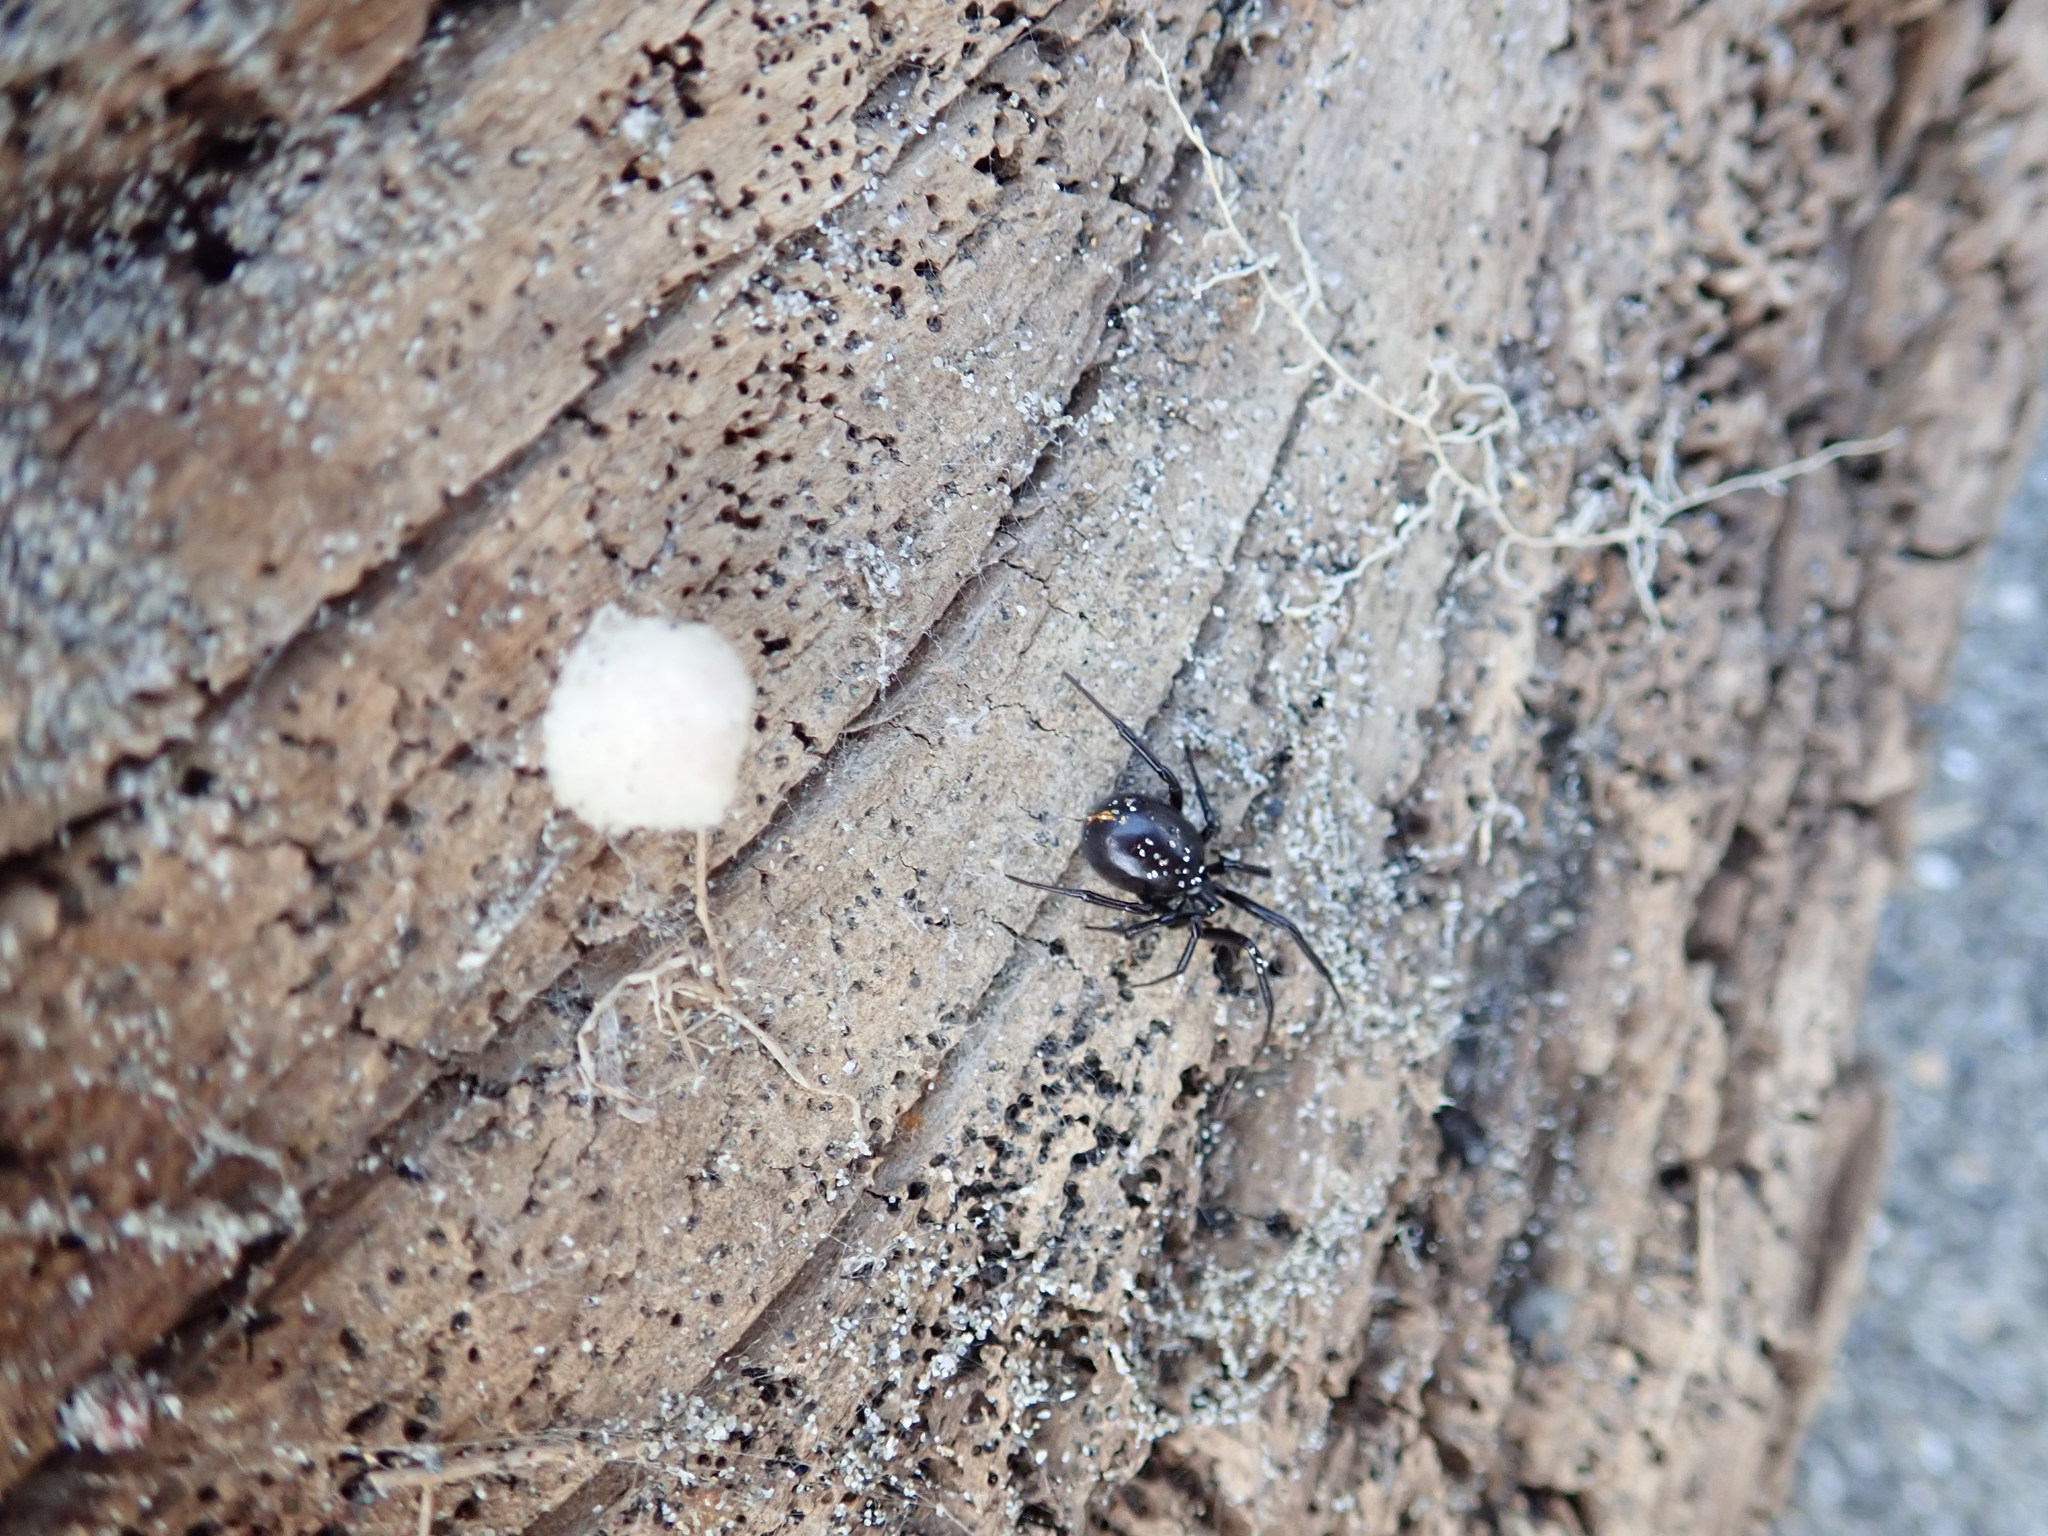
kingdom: Animalia
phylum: Arthropoda
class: Arachnida
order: Araneae
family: Theridiidae
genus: Steatoda
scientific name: Steatoda capensis
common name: Cobweb weaver
